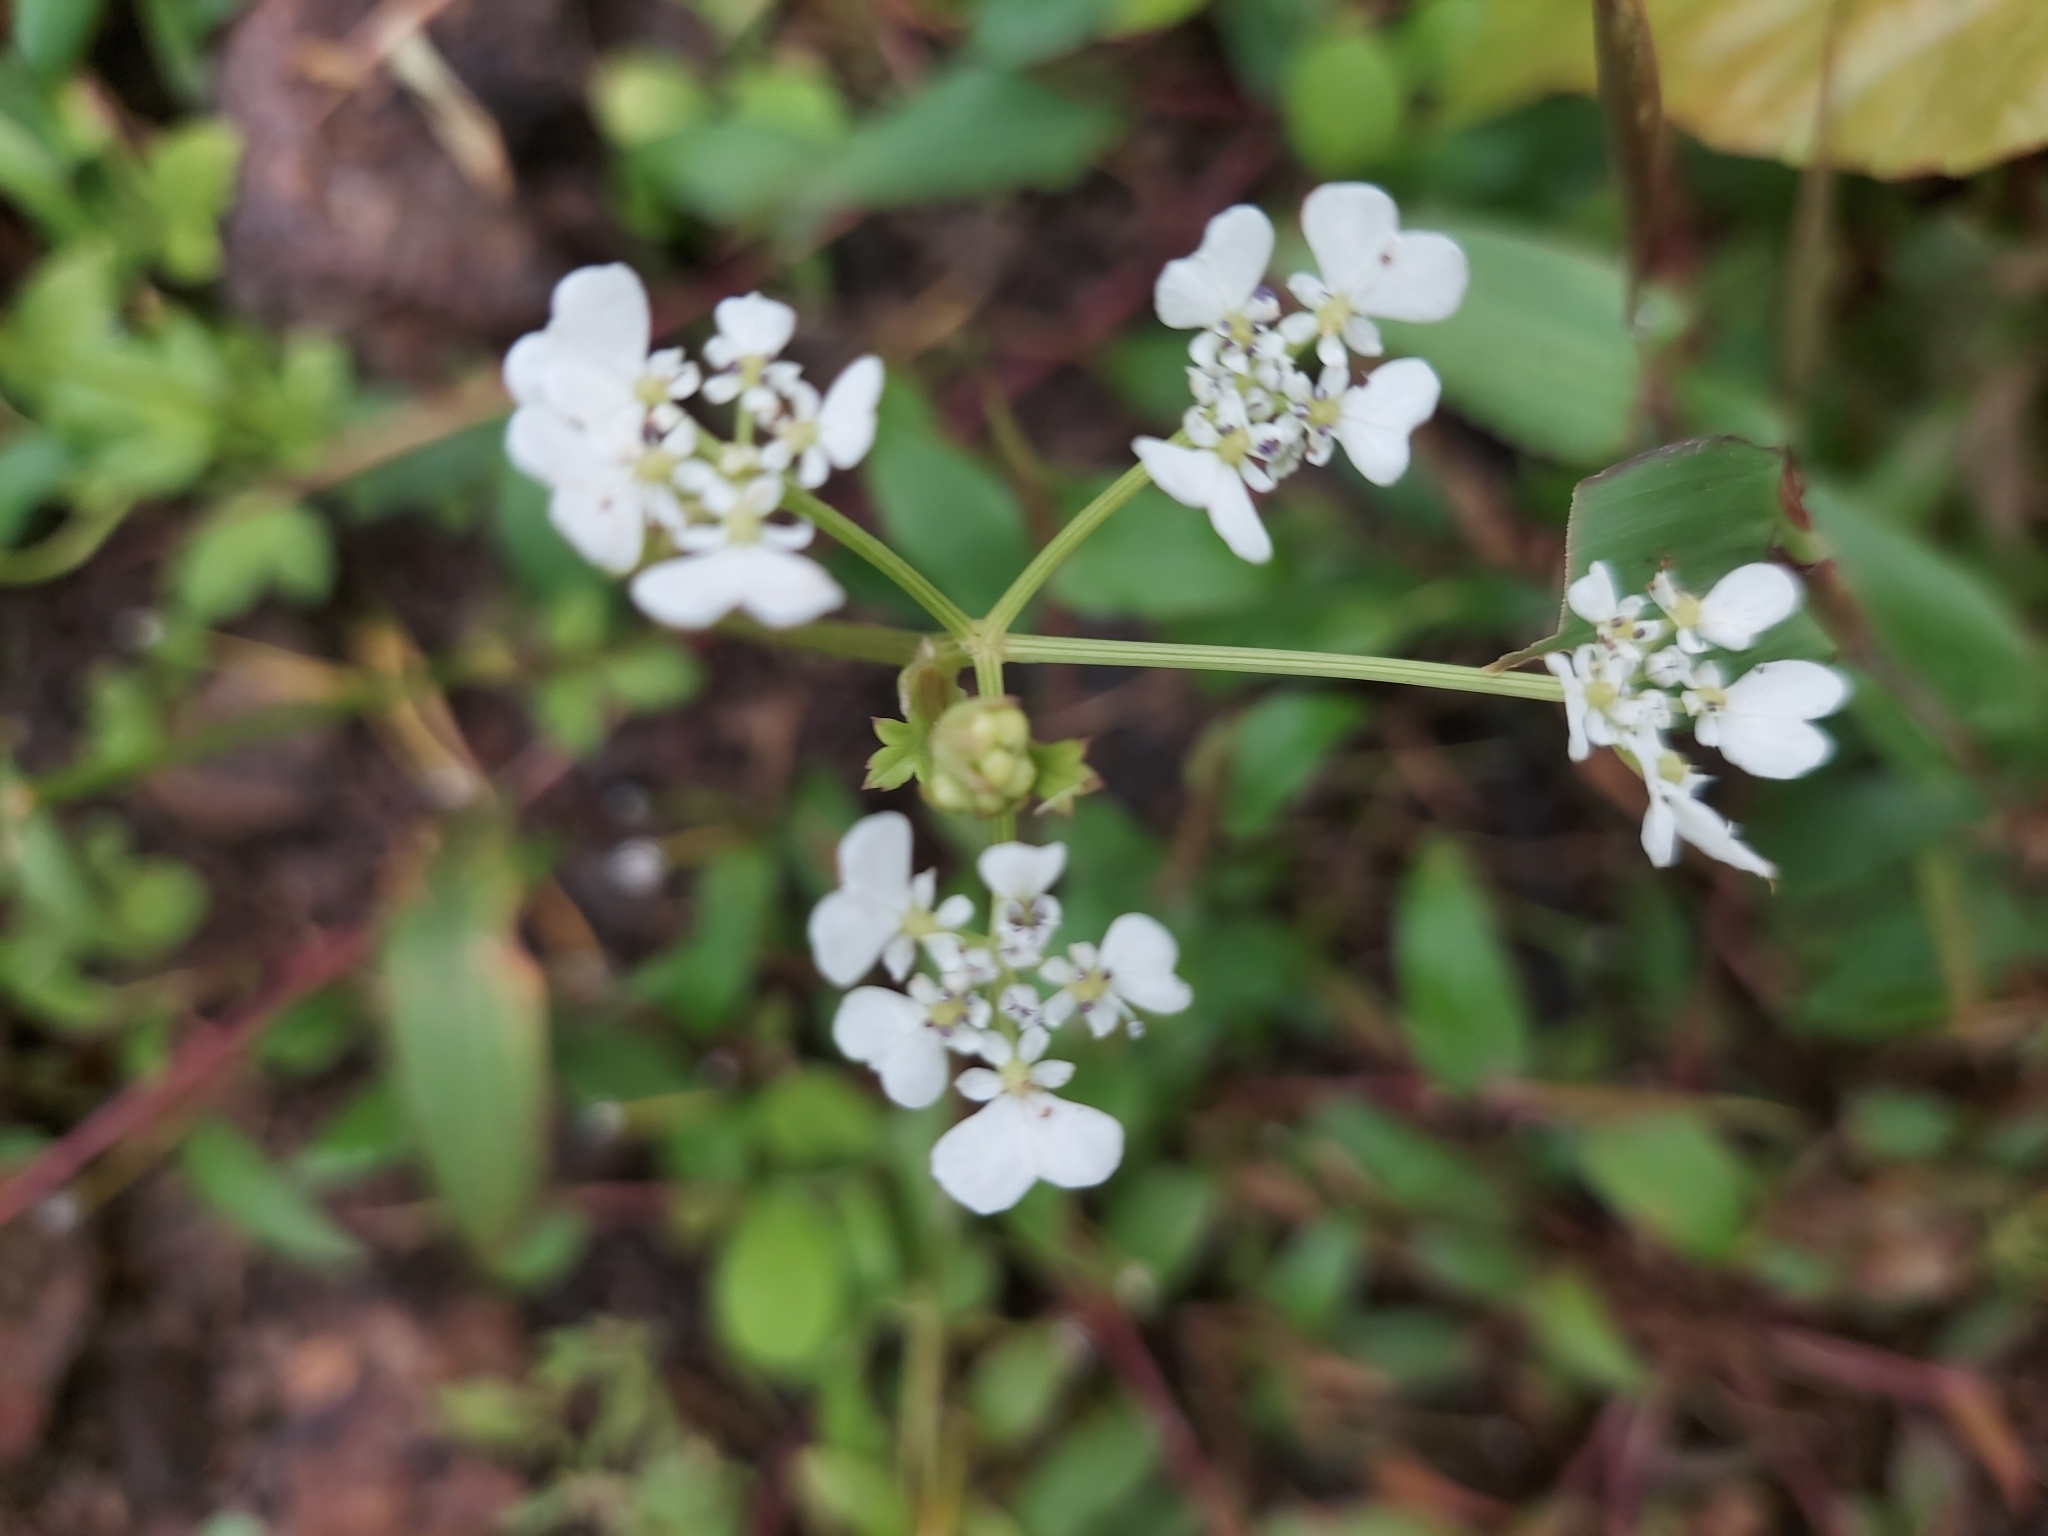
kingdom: Plantae
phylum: Tracheophyta
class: Magnoliopsida
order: Apiales
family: Apiaceae
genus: Pinda
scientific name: Pinda concanensis
